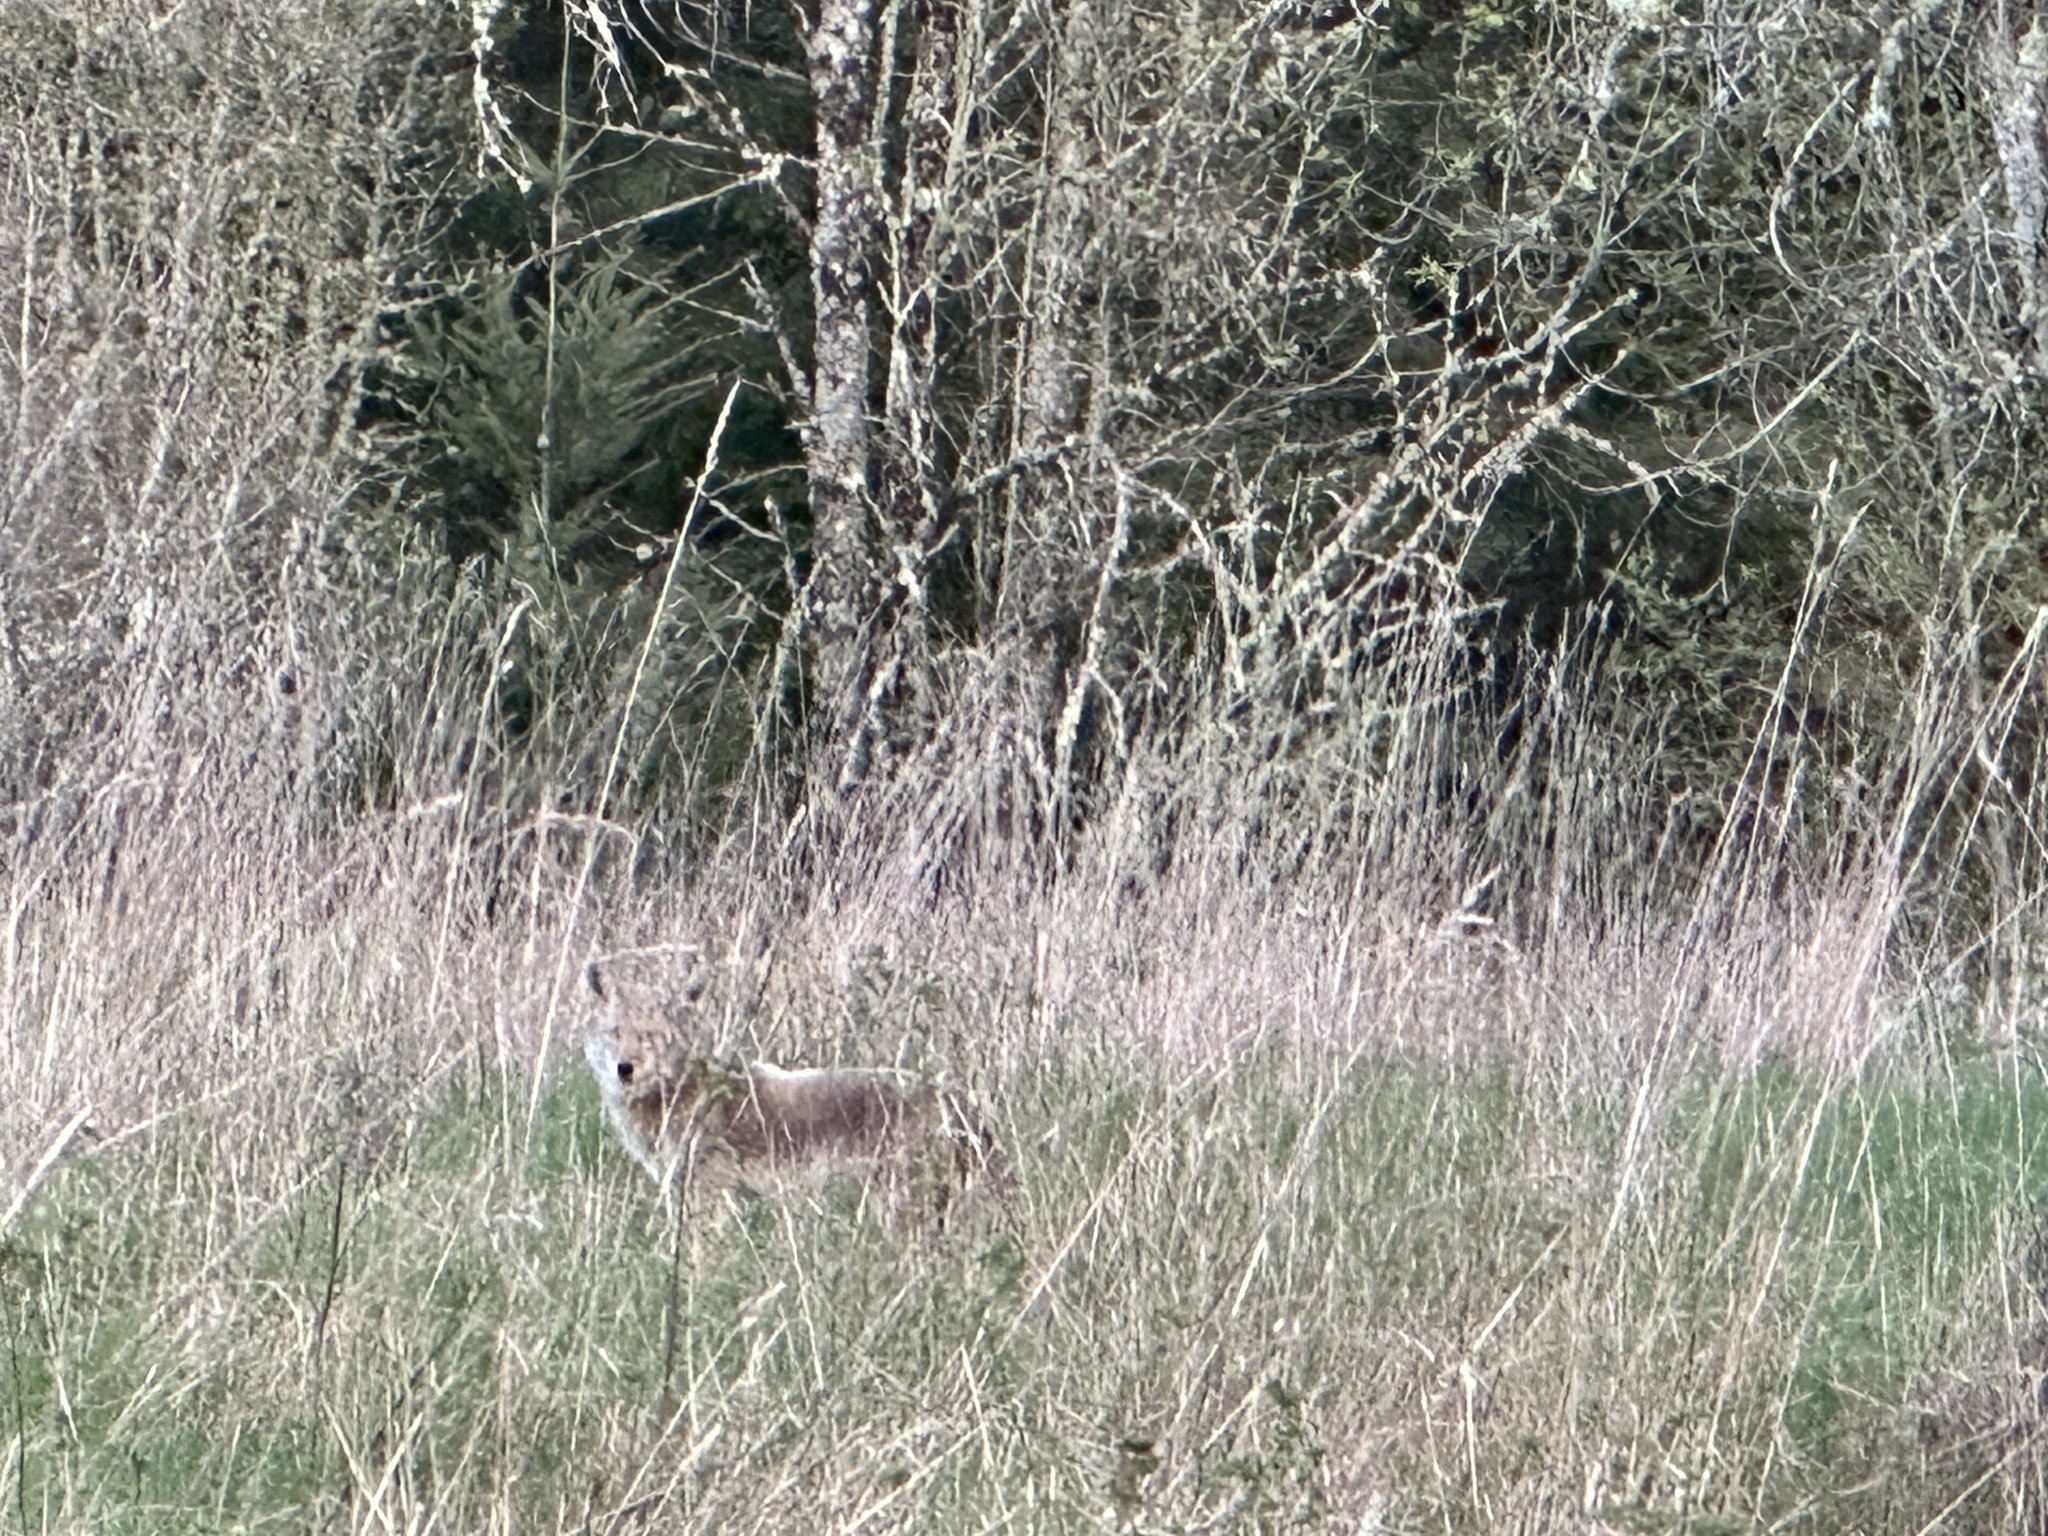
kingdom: Animalia
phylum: Chordata
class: Mammalia
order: Carnivora
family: Canidae
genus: Canis
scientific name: Canis latrans
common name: Coyote
